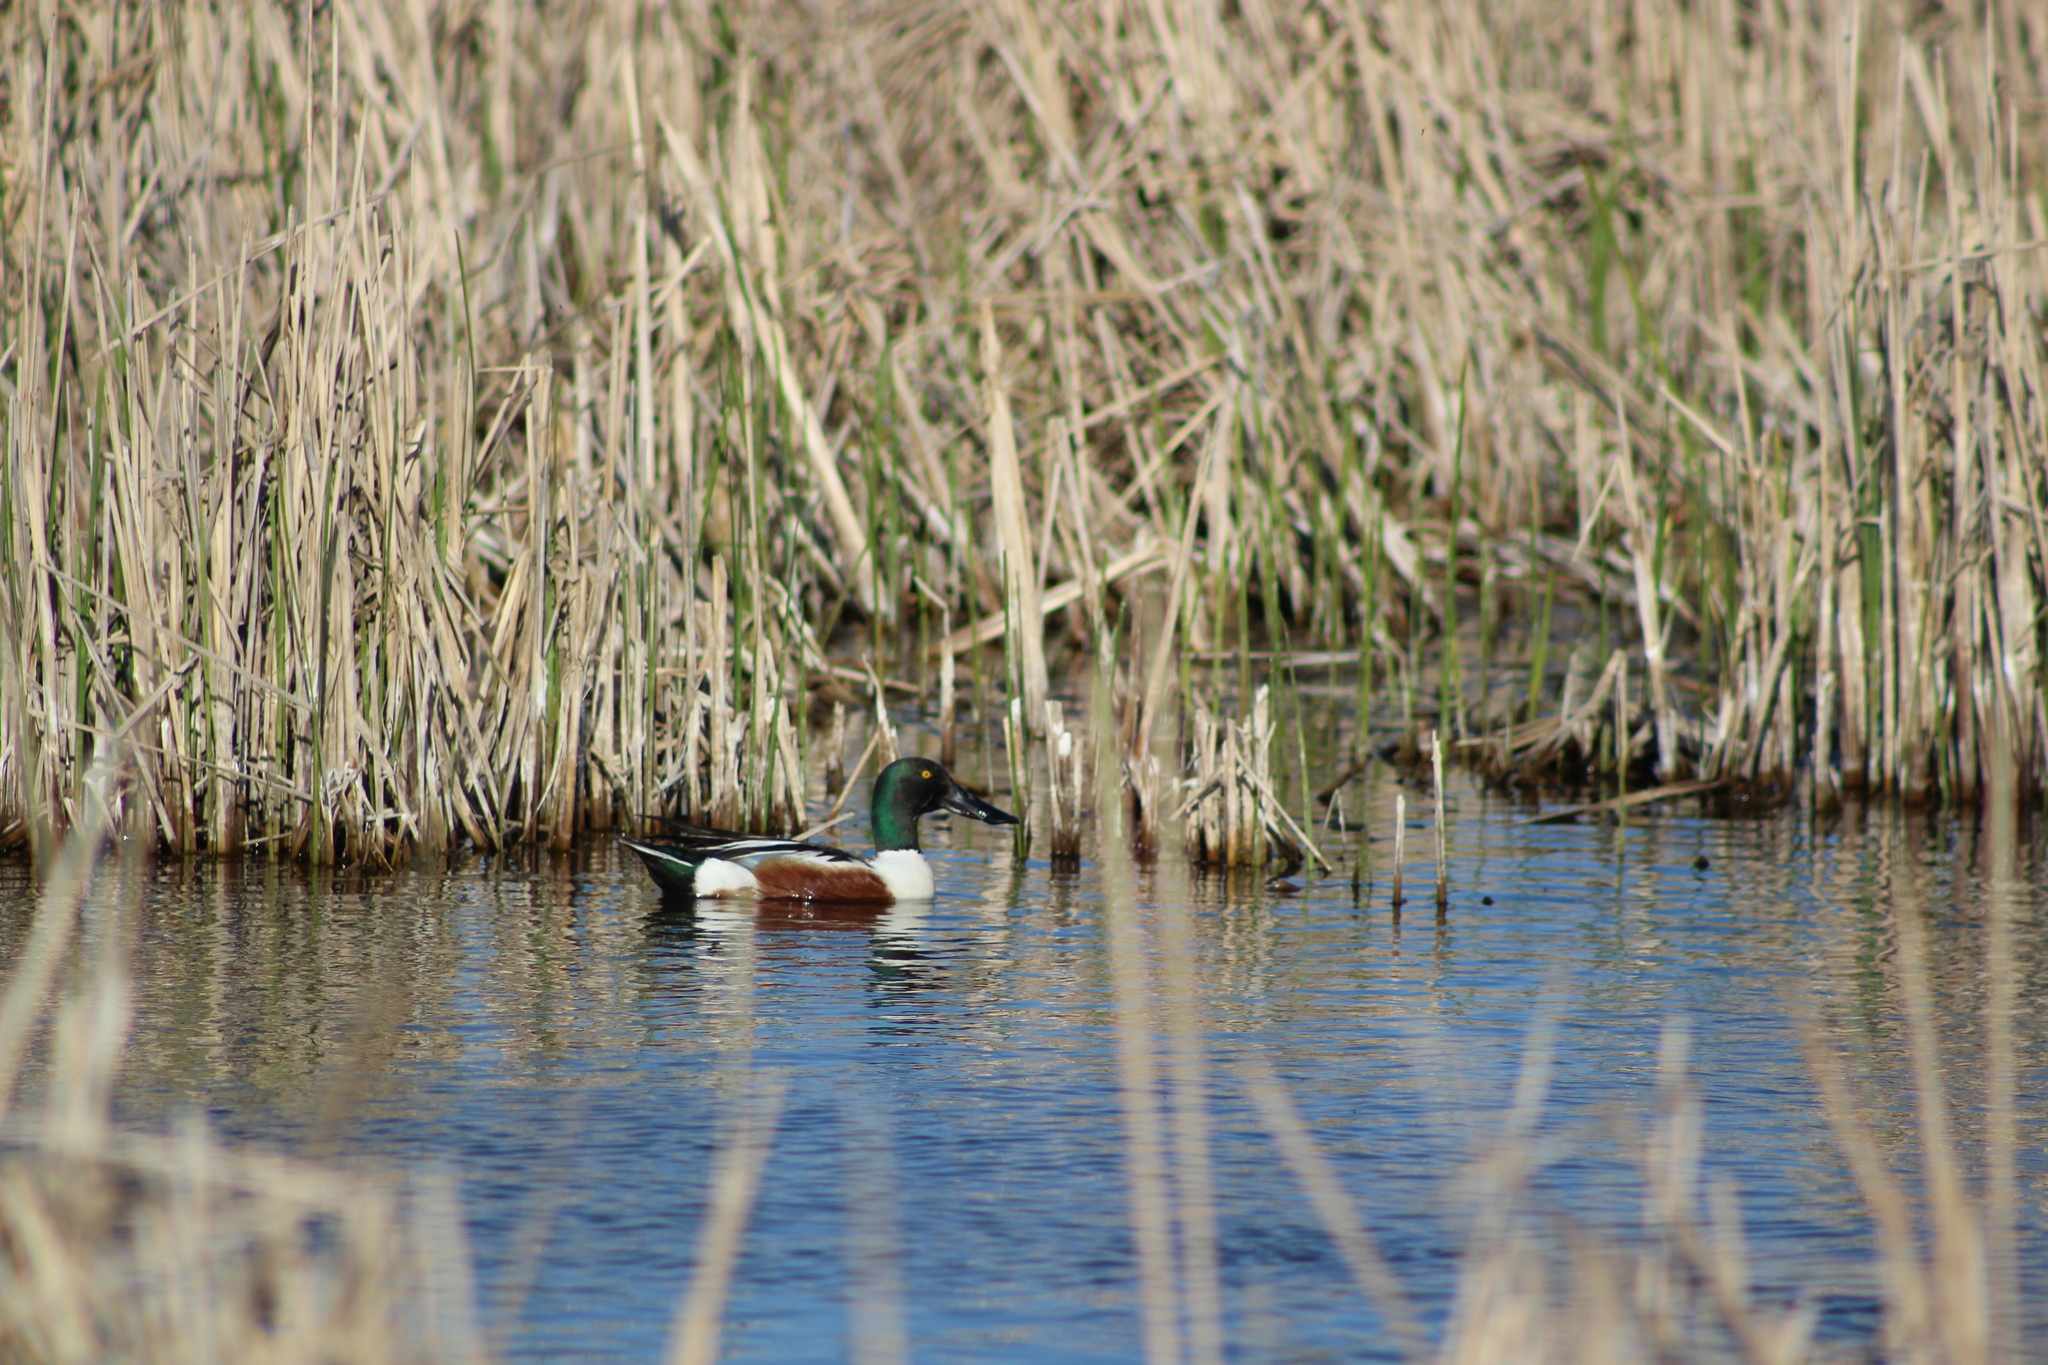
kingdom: Animalia
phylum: Chordata
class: Aves
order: Anseriformes
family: Anatidae
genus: Spatula
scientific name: Spatula clypeata
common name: Northern shoveler
